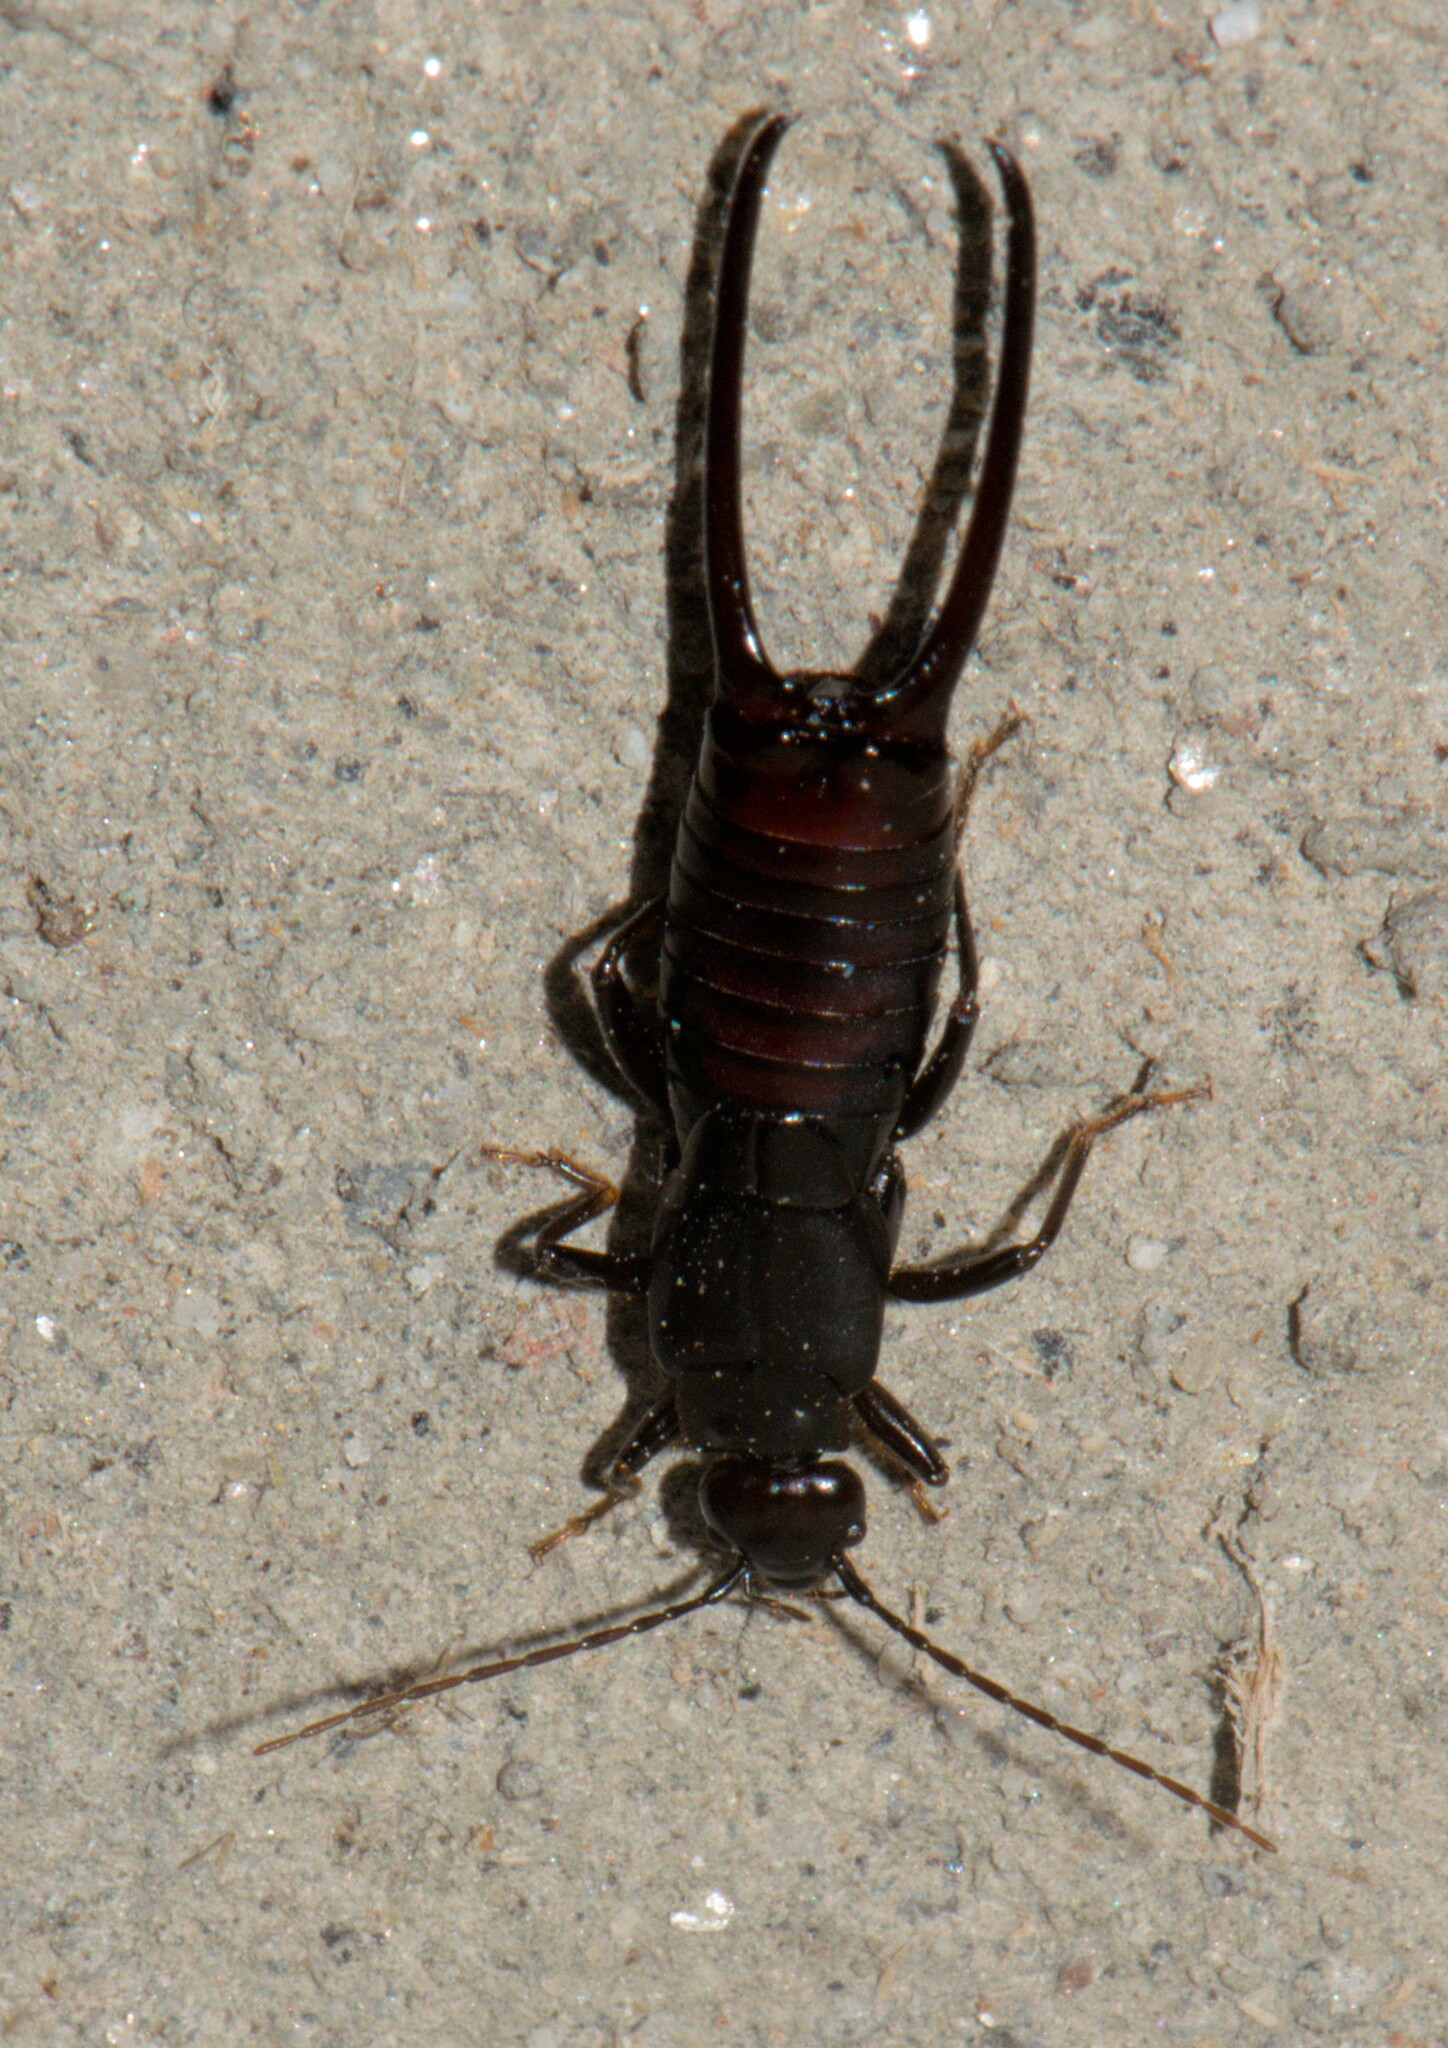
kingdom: Animalia
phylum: Arthropoda
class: Insecta
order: Dermaptera
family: Forficulidae
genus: Oreasiobia
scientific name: Oreasiobia stoliczkae
